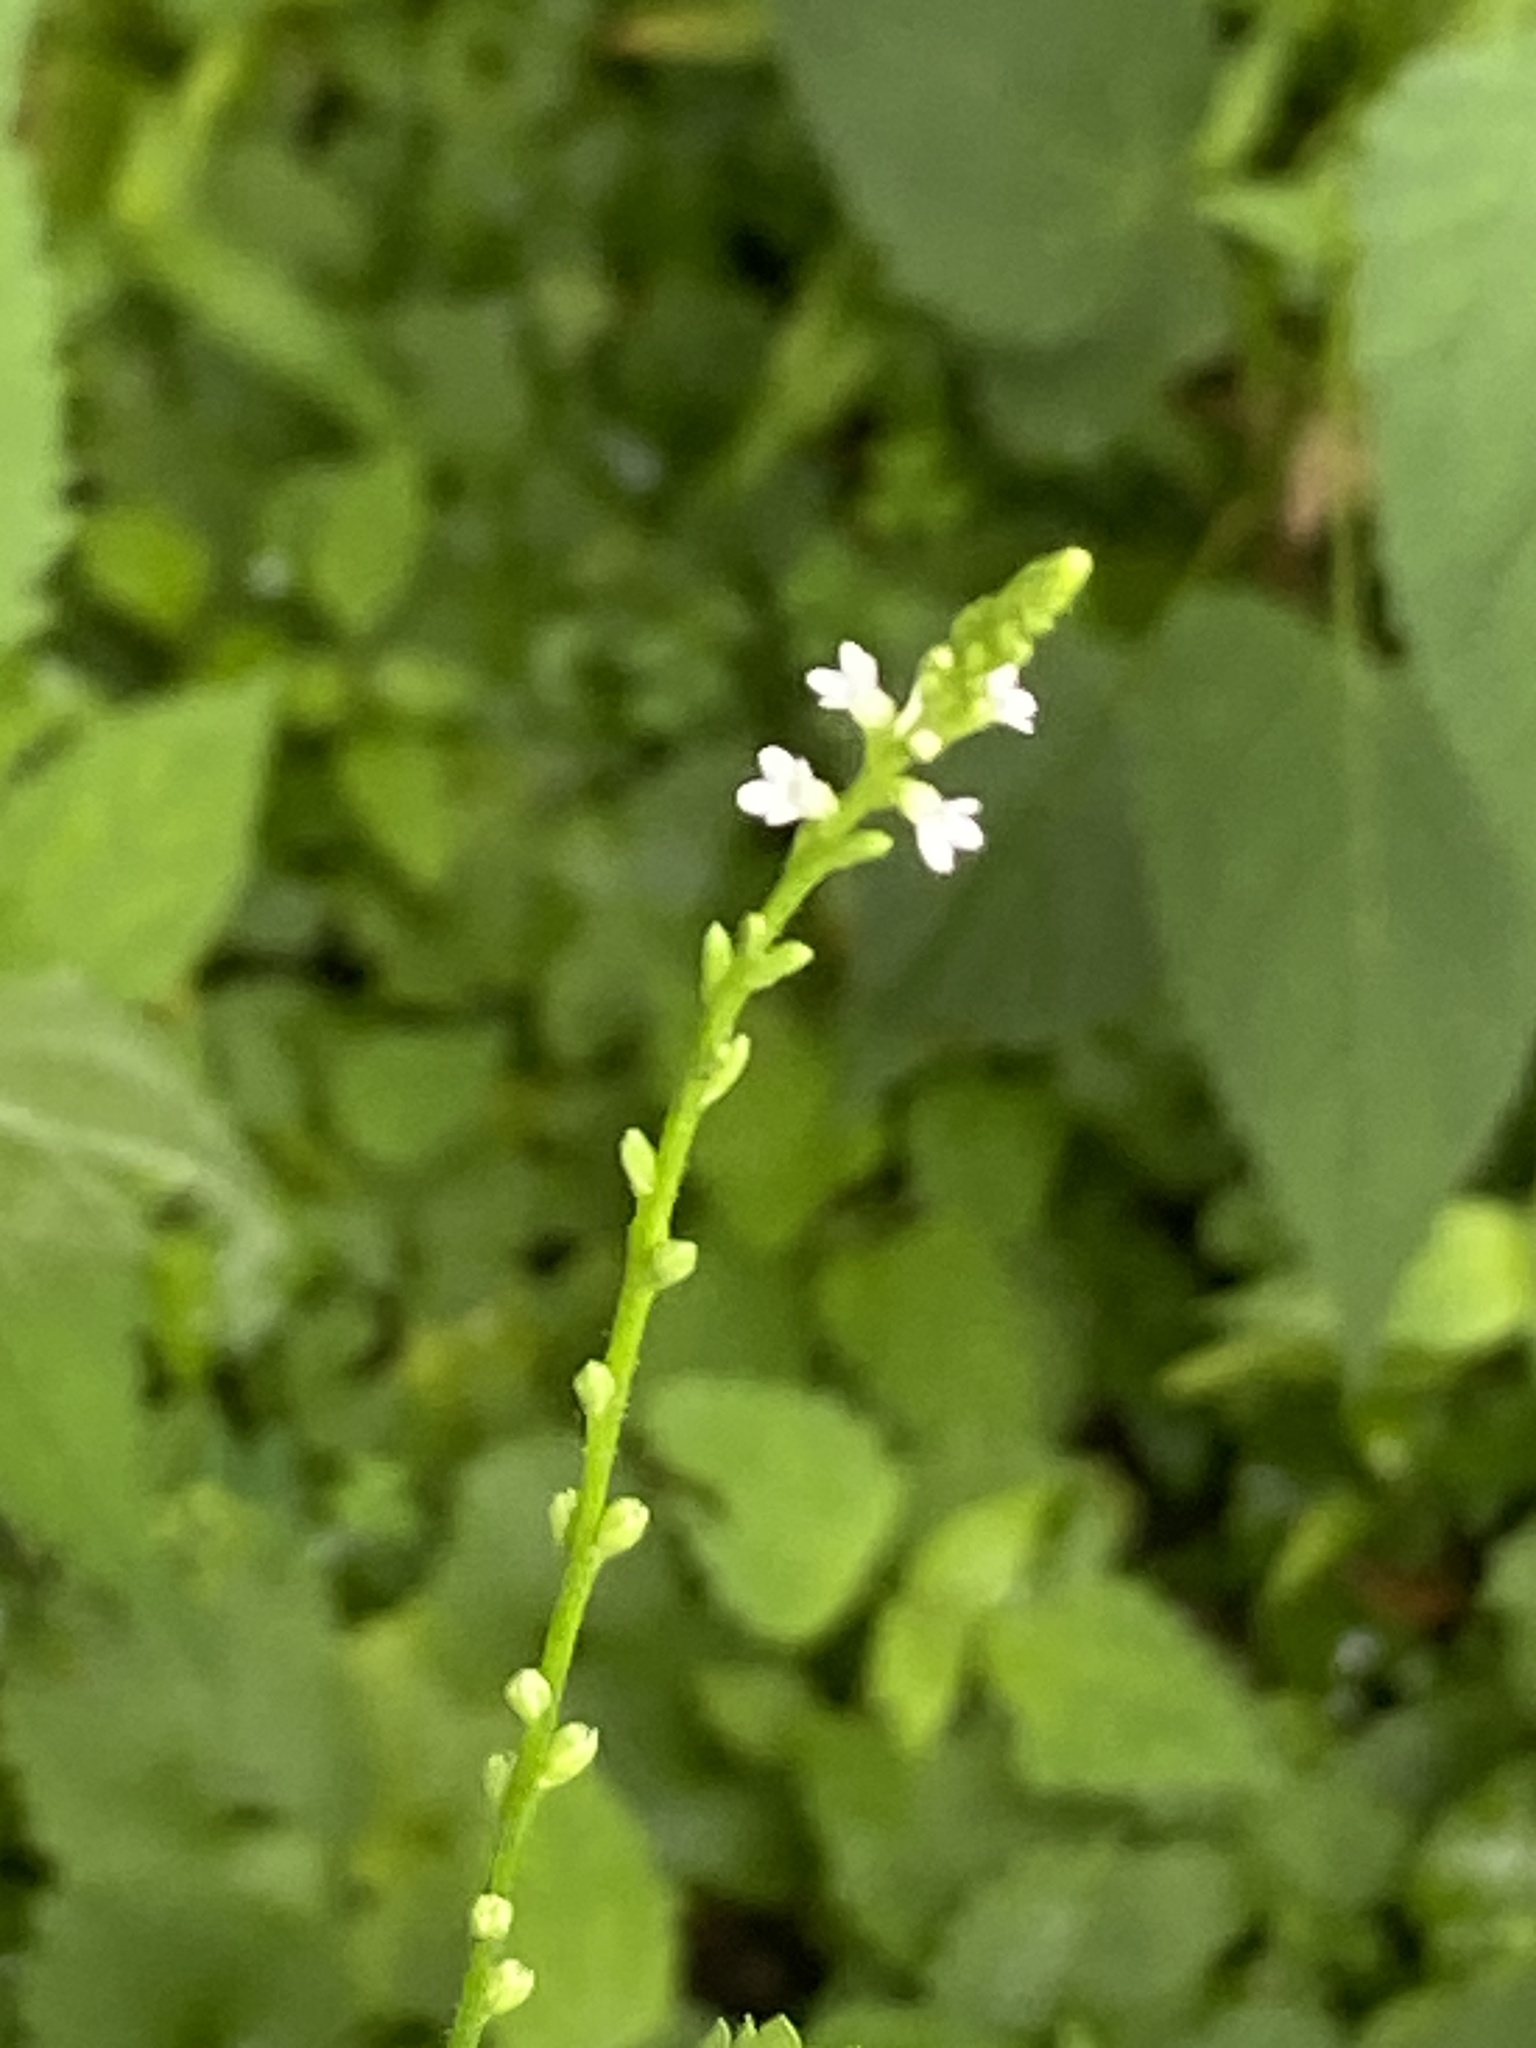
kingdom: Plantae
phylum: Tracheophyta
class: Magnoliopsida
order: Lamiales
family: Verbenaceae
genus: Verbena
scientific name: Verbena urticifolia
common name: Nettle-leaved vervain
